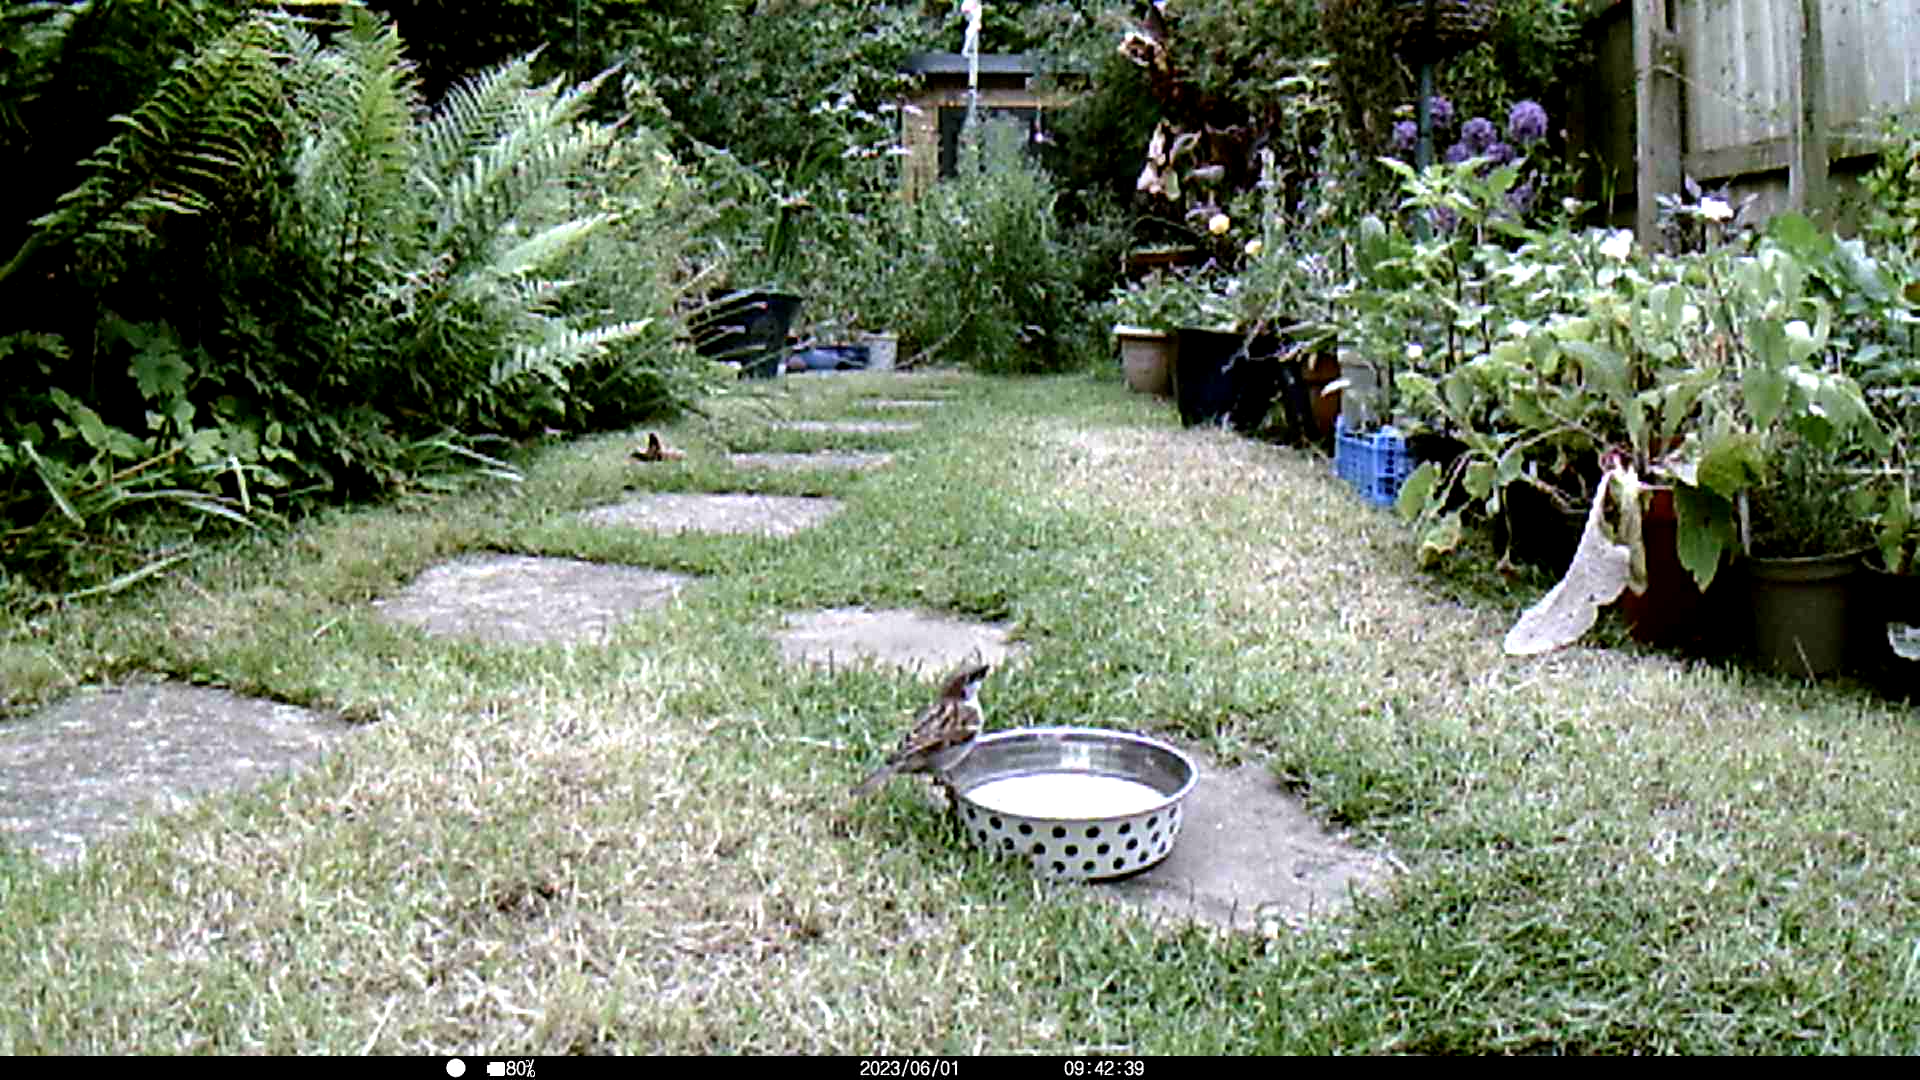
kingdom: Animalia
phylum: Chordata
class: Aves
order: Passeriformes
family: Passeridae
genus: Passer
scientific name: Passer domesticus
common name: House sparrow
